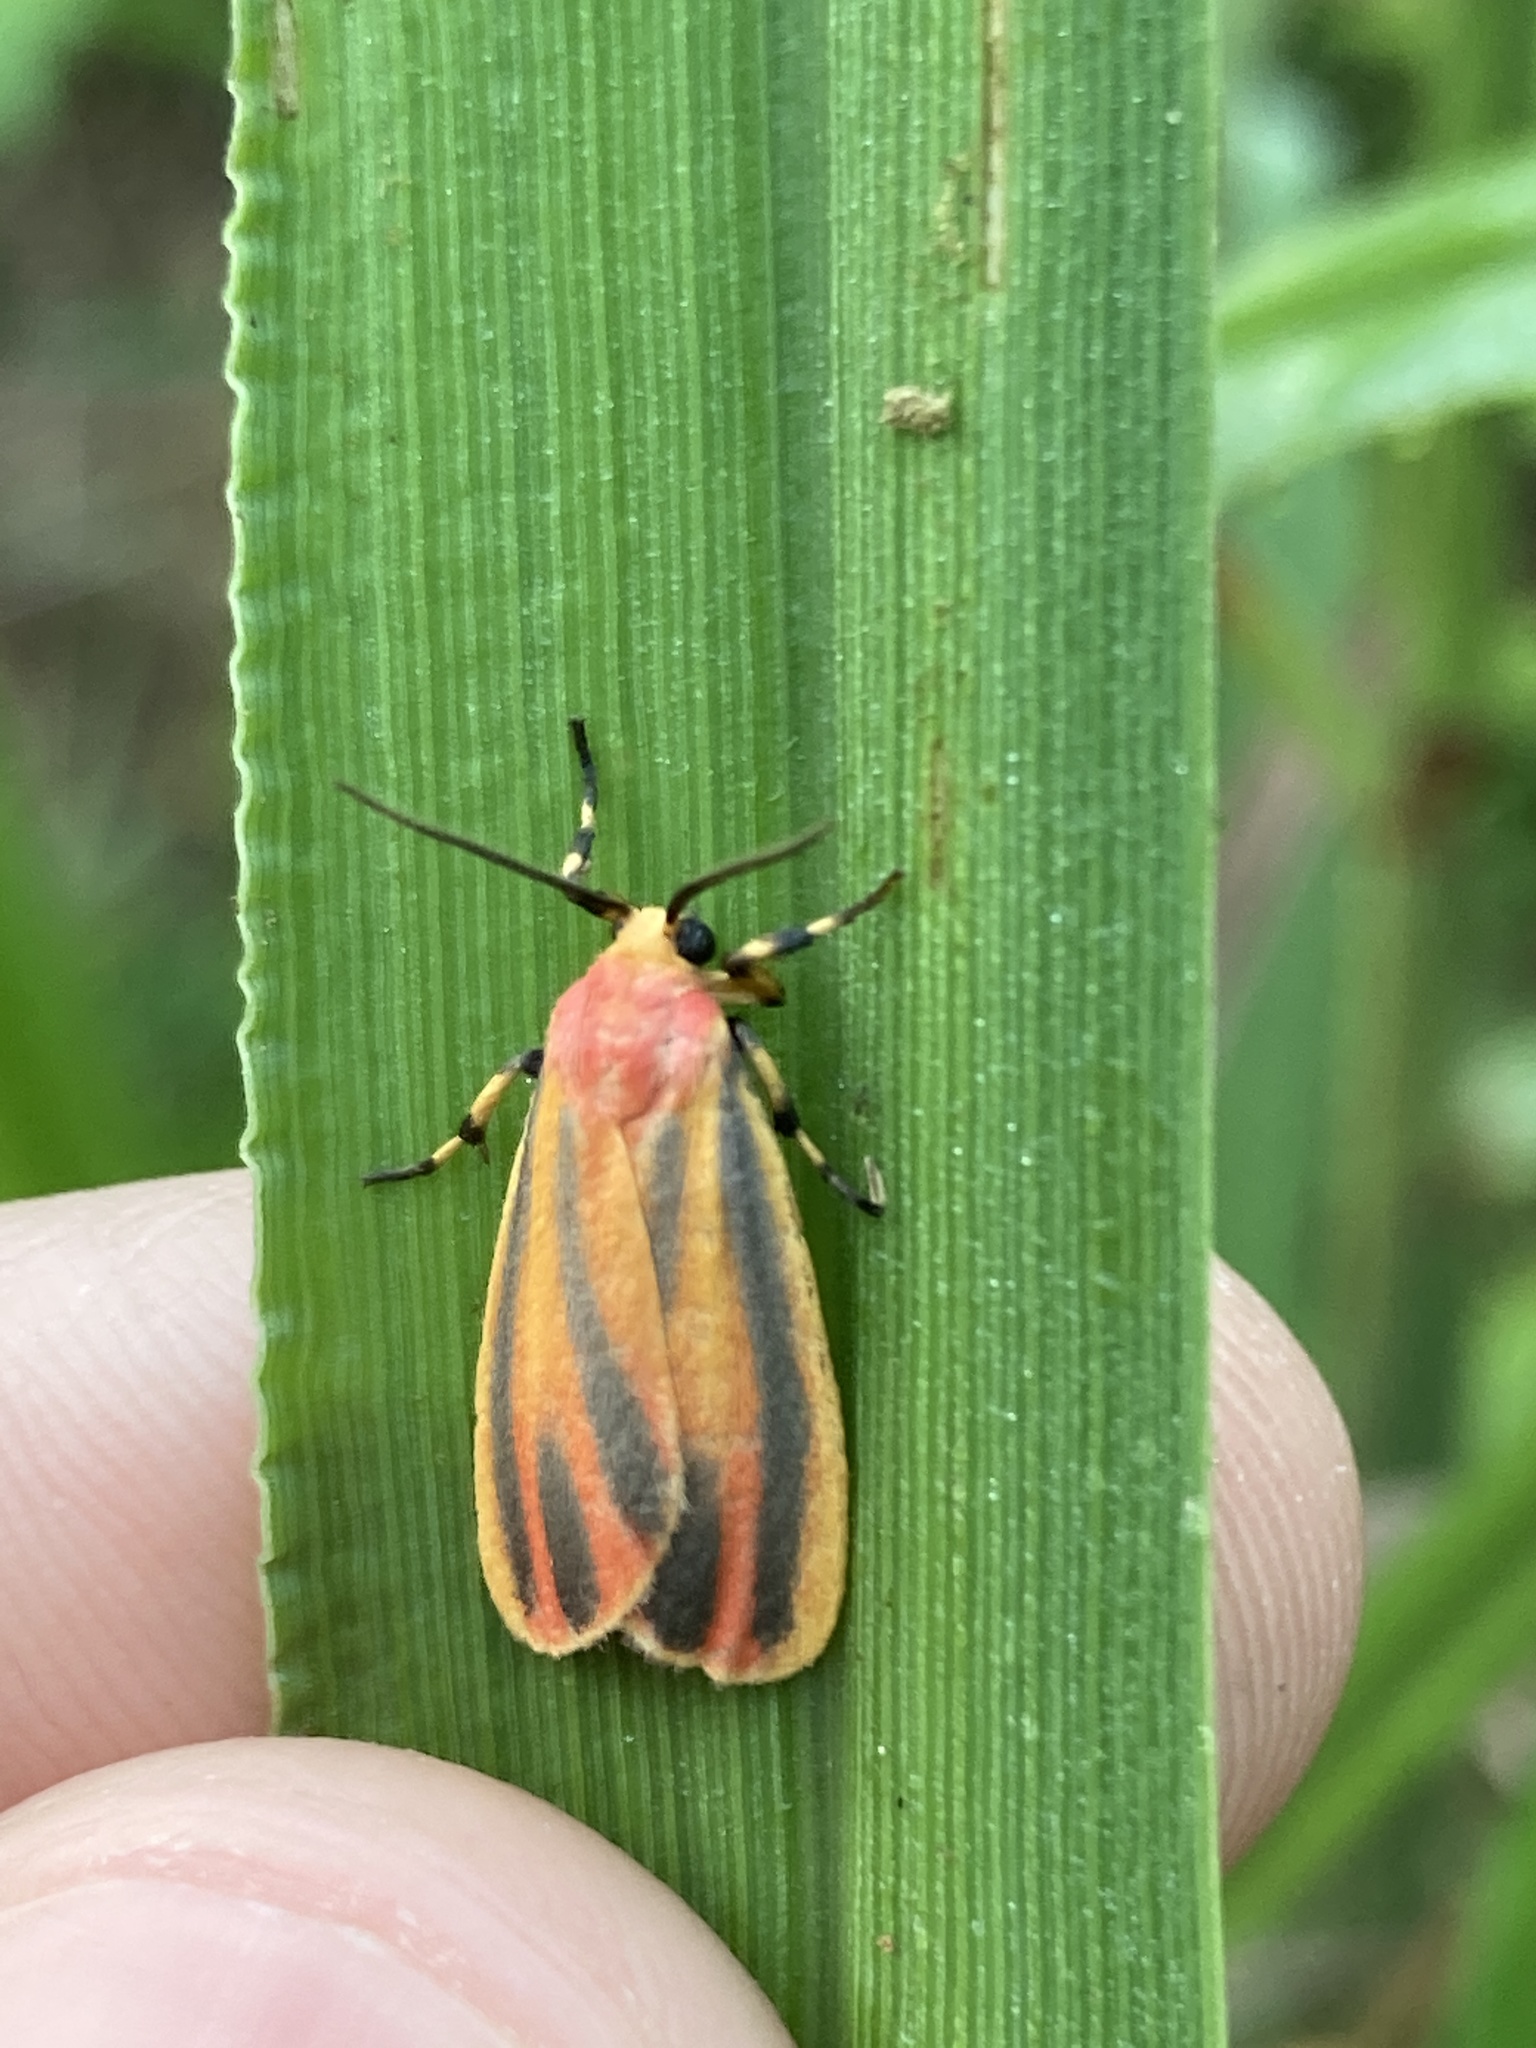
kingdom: Animalia
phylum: Arthropoda
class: Insecta
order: Lepidoptera
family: Erebidae
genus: Hypoprepia
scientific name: Hypoprepia fucosa
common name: Painted lichen moth
